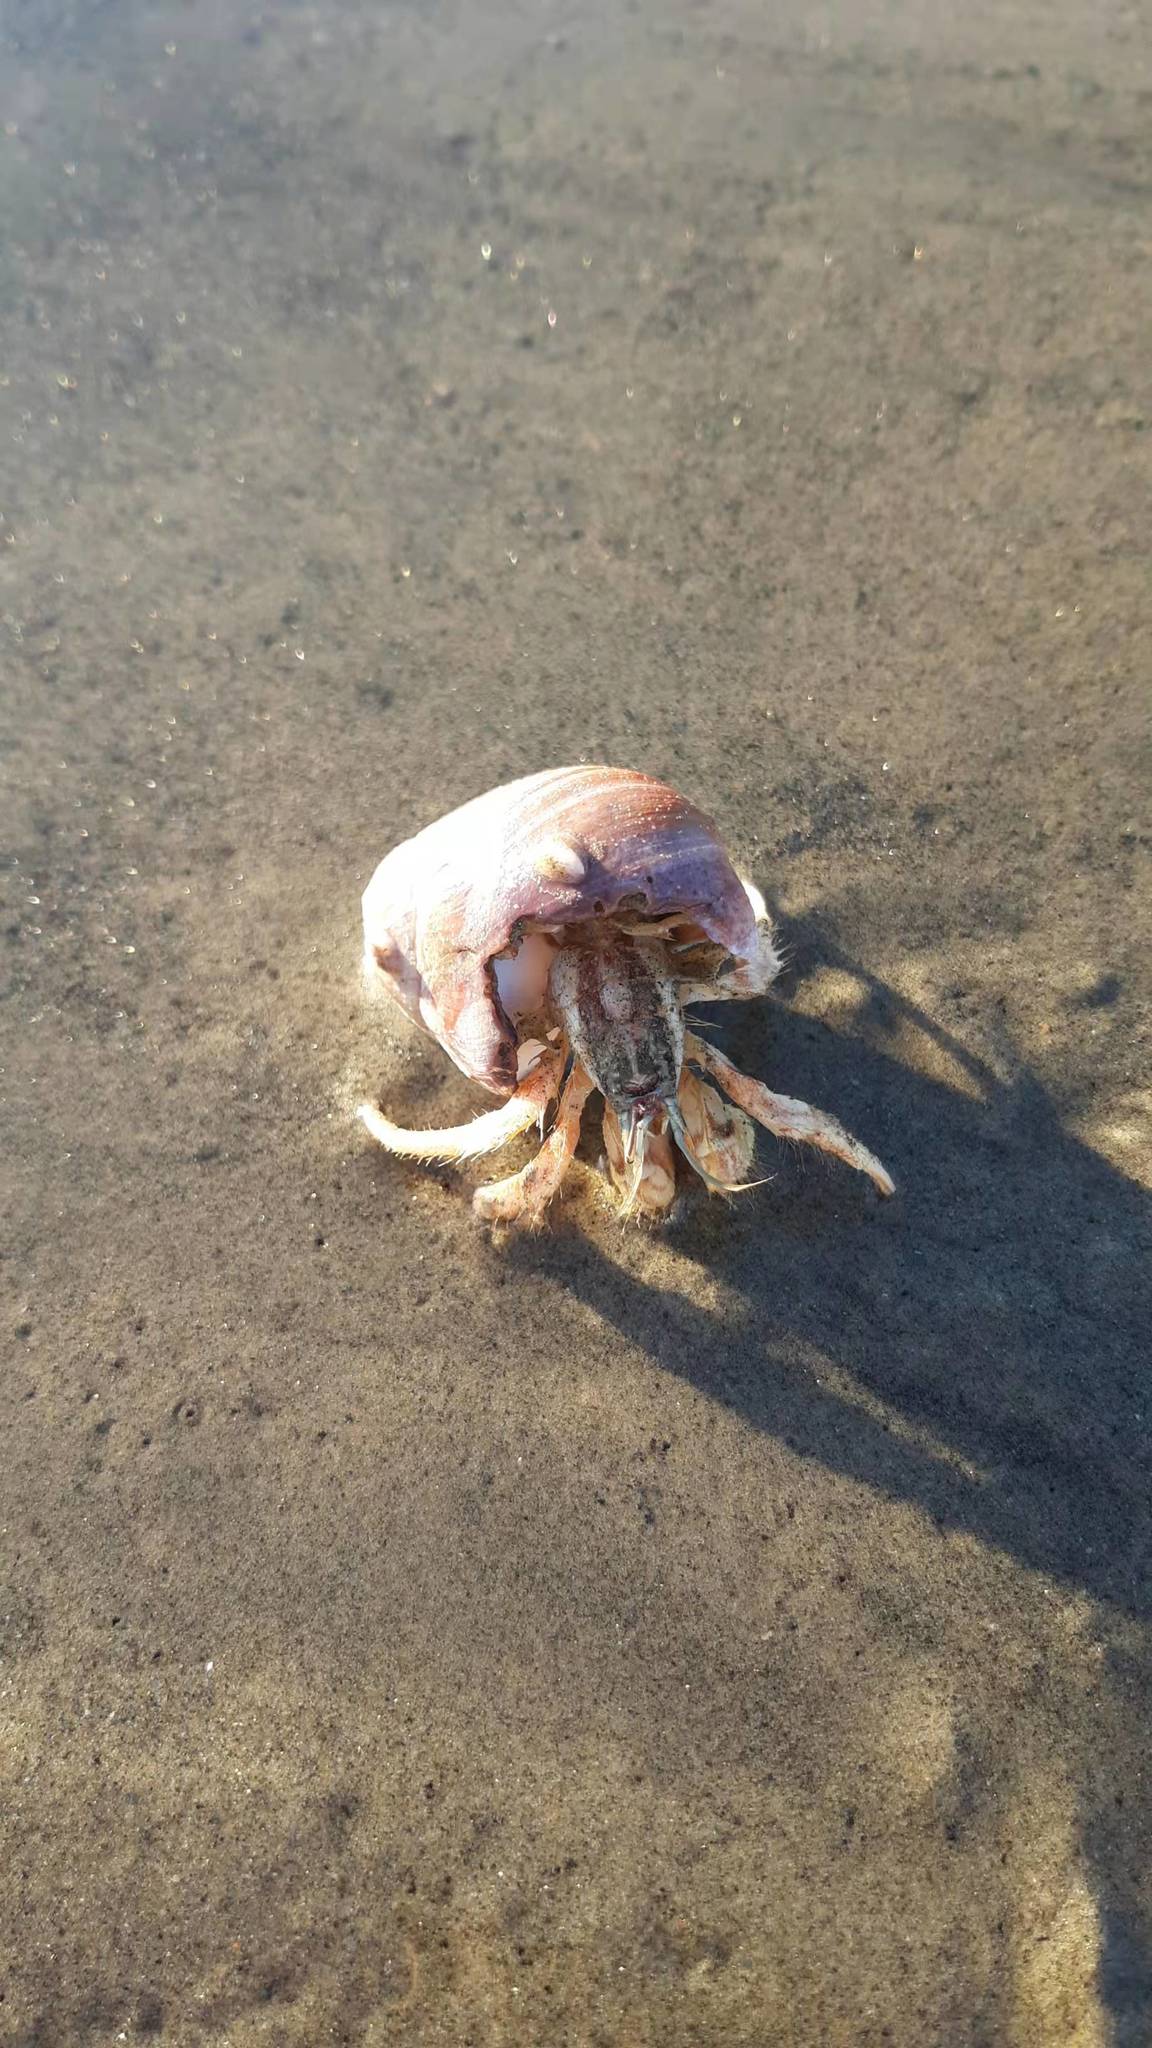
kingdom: Animalia
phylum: Arthropoda
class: Malacostraca
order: Decapoda
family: Diogenidae
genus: Isocheles
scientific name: Isocheles pilosus
